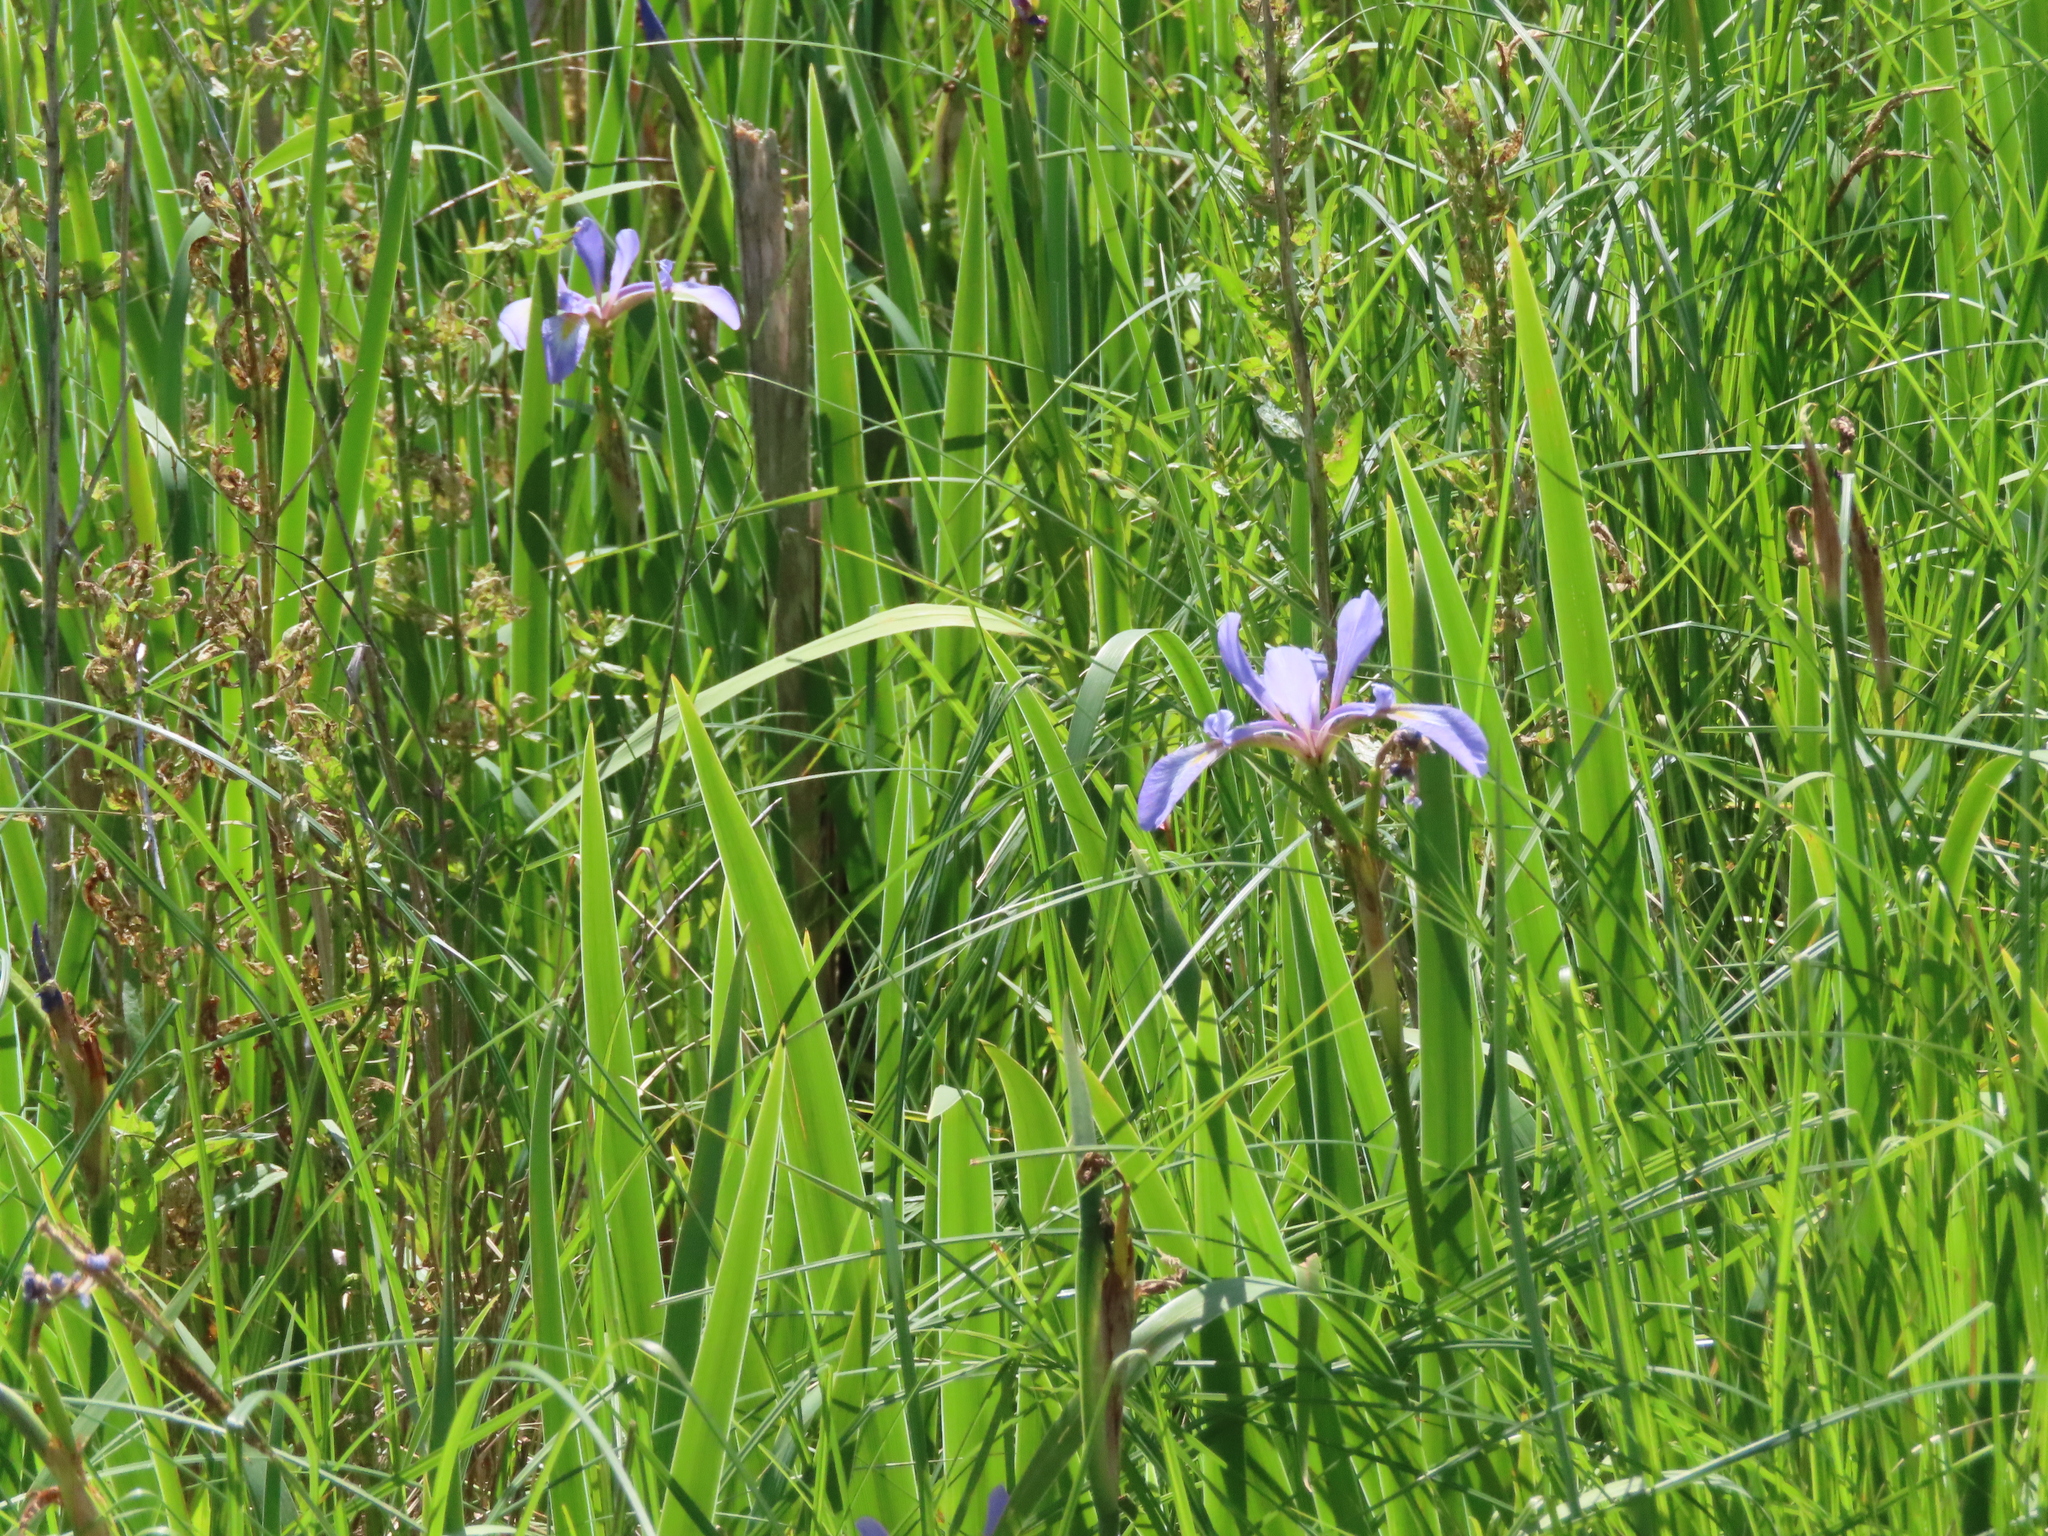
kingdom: Plantae
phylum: Tracheophyta
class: Liliopsida
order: Asparagales
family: Iridaceae
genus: Iris
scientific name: Iris virginica
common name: Southern blue flag
